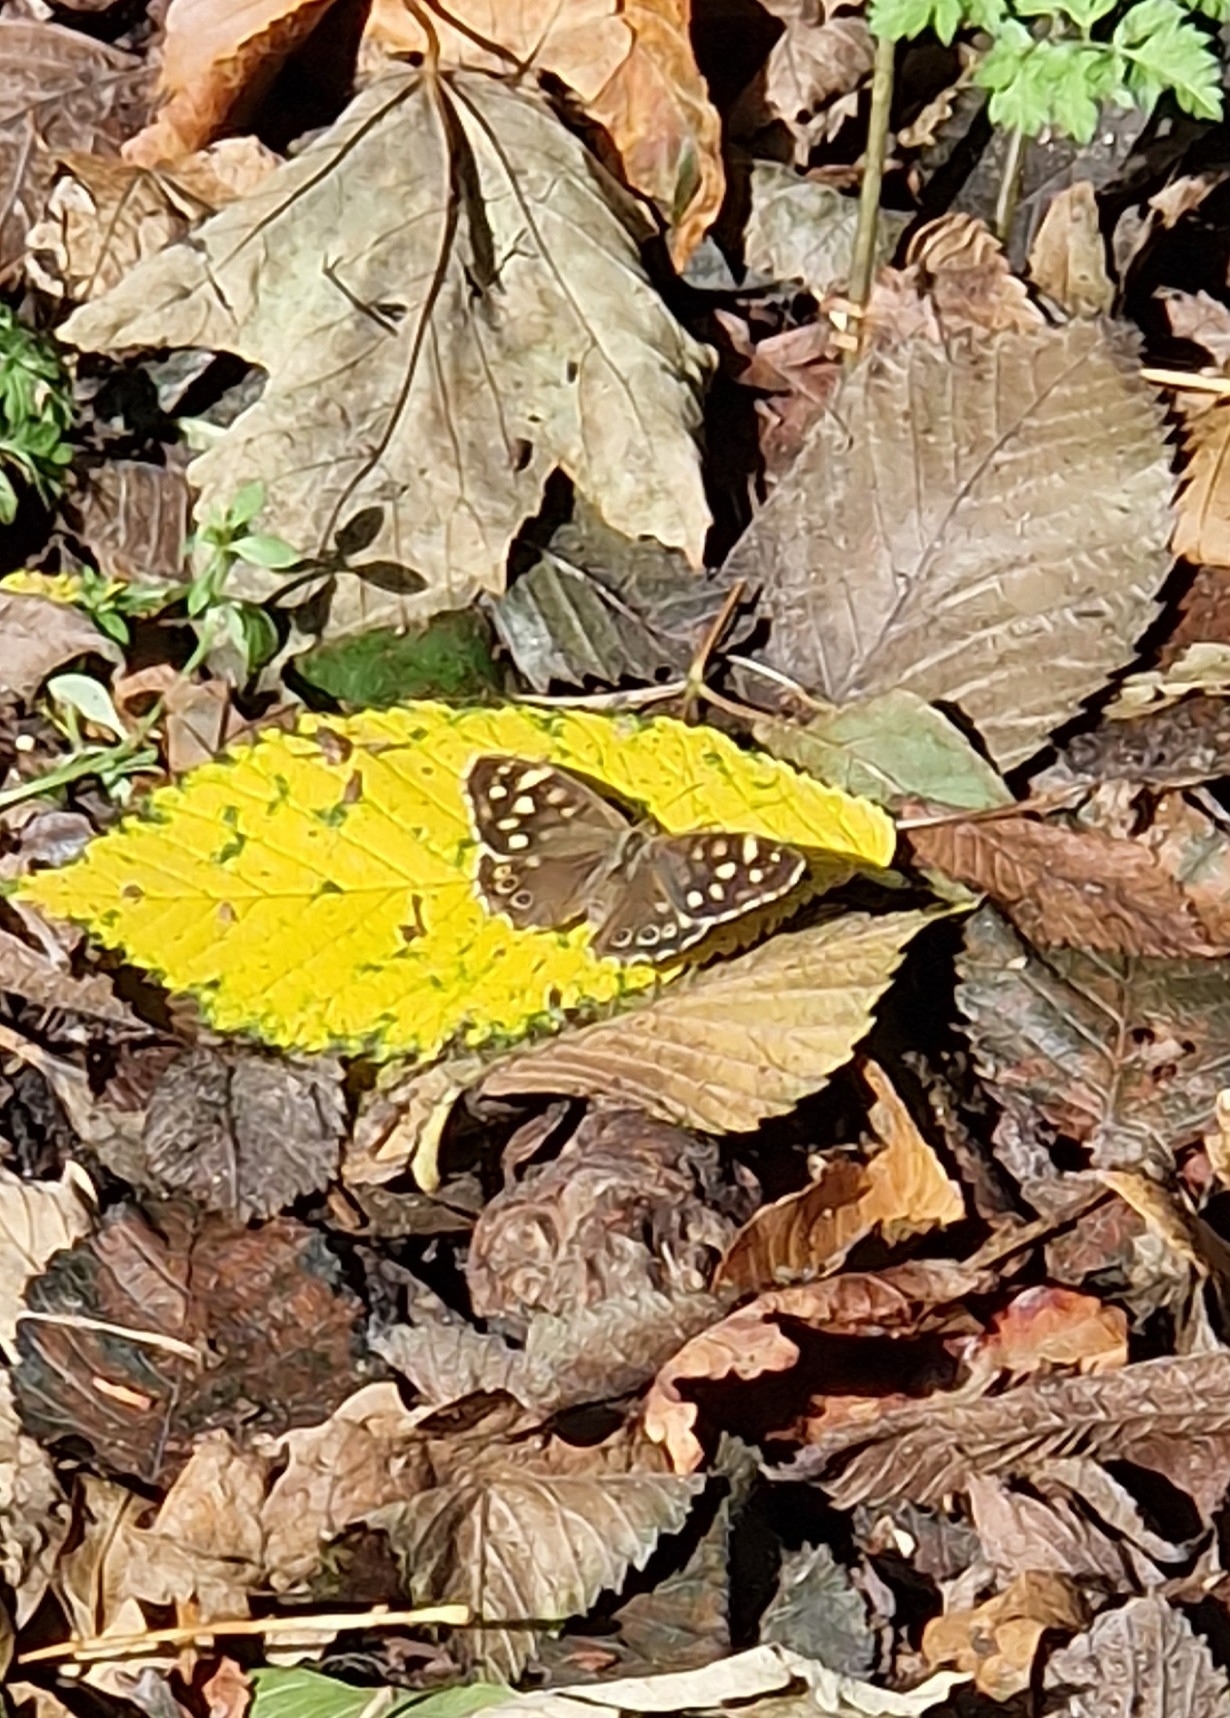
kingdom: Animalia
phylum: Arthropoda
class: Insecta
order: Lepidoptera
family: Nymphalidae
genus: Pararge
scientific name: Pararge aegeria
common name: Speckled wood
